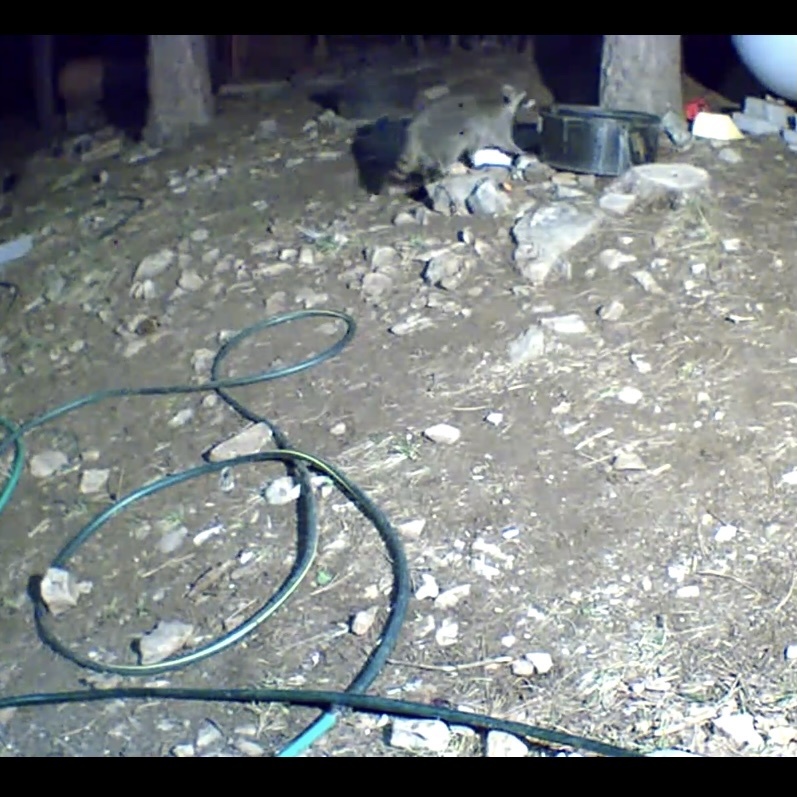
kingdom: Animalia
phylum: Chordata
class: Mammalia
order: Carnivora
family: Procyonidae
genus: Procyon
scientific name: Procyon lotor
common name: Raccoon
